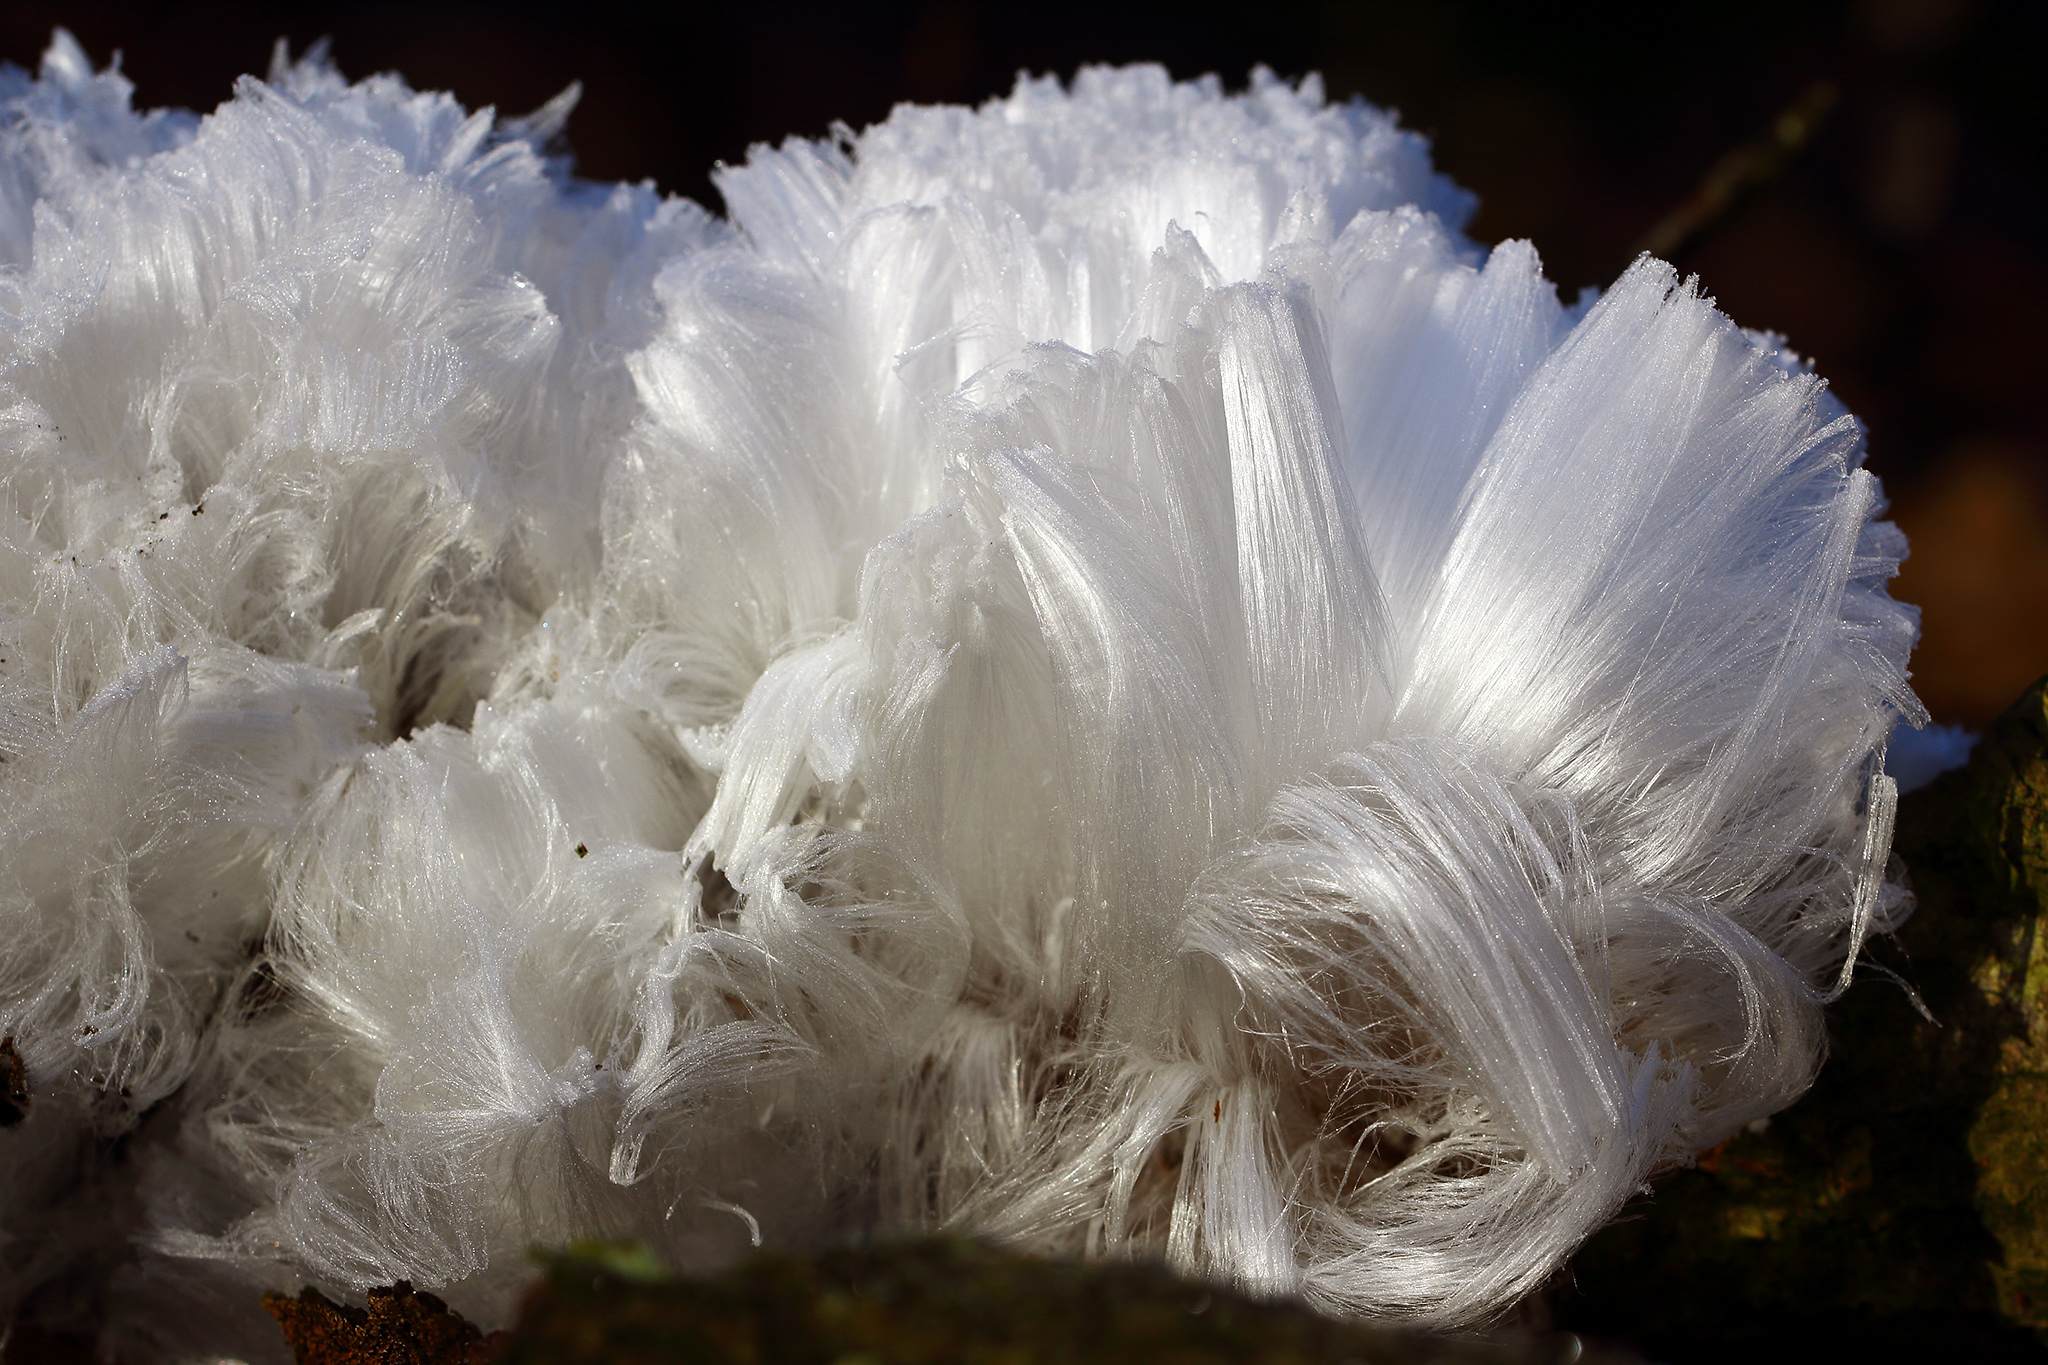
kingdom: Fungi
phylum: Basidiomycota
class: Agaricomycetes
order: Auriculariales
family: Auriculariaceae
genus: Exidiopsis
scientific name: Exidiopsis effusa
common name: Hair ice crust
